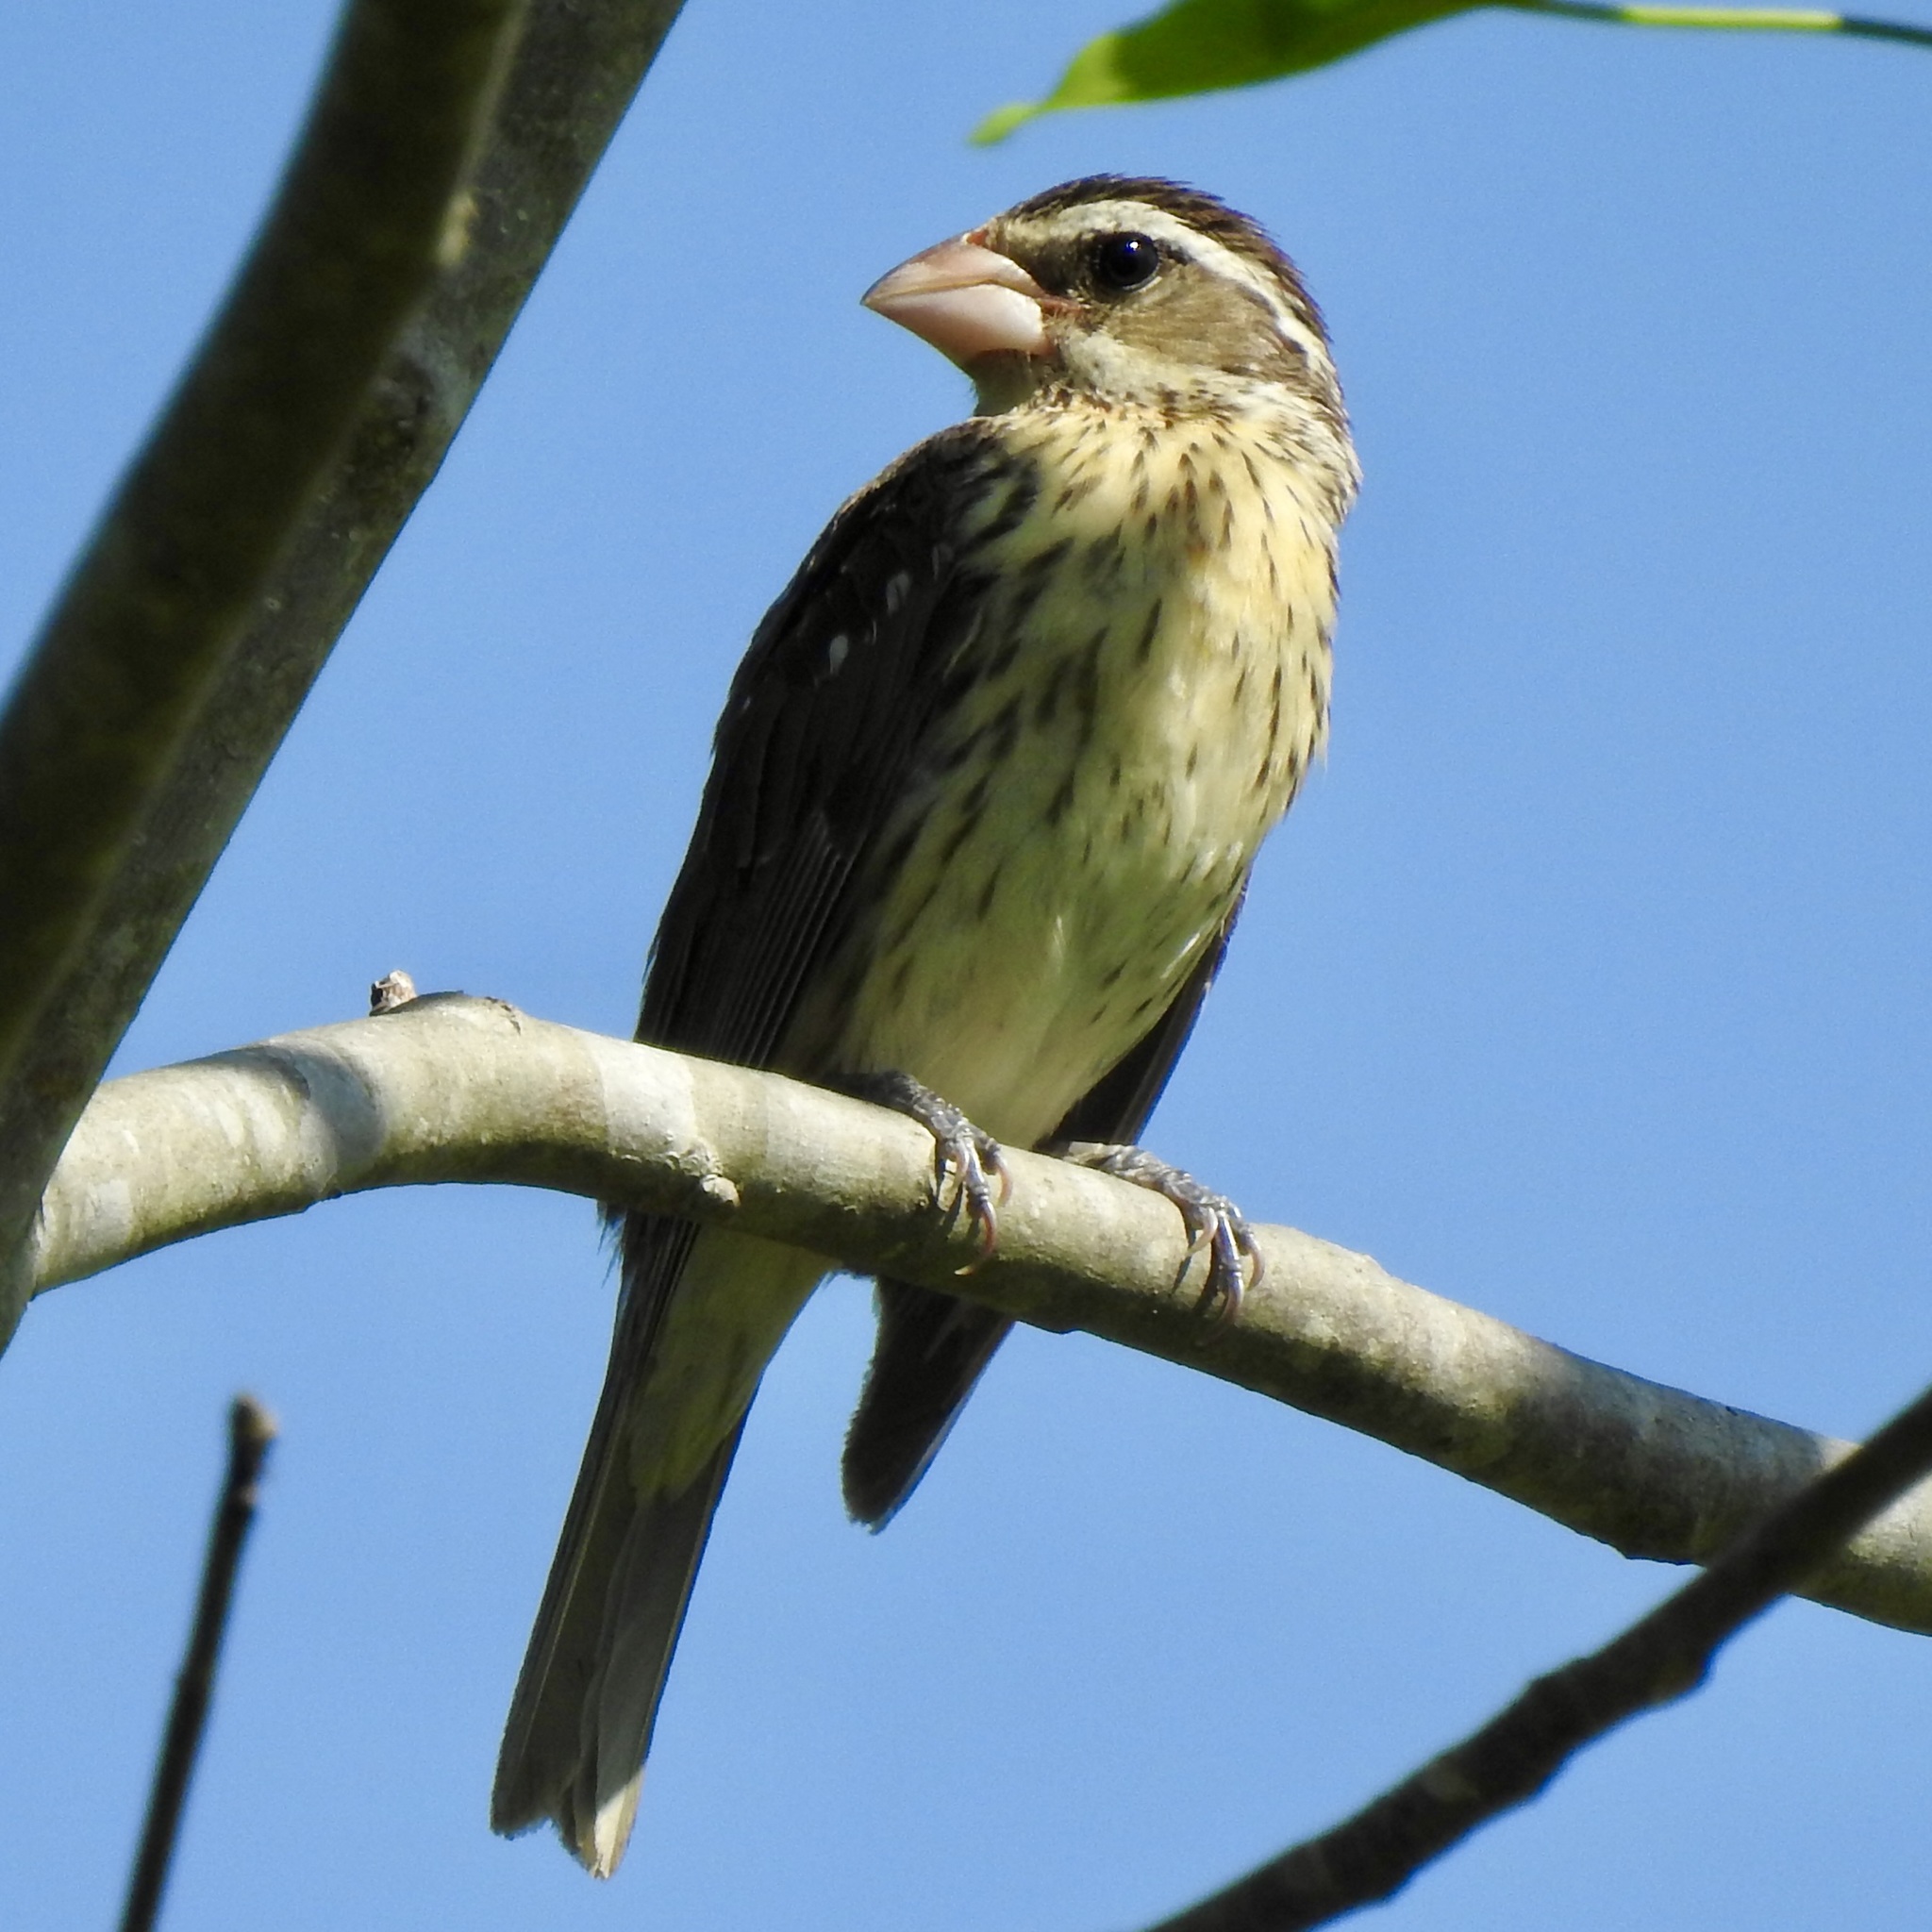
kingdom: Animalia
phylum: Chordata
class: Aves
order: Passeriformes
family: Cardinalidae
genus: Pheucticus
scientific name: Pheucticus ludovicianus
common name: Rose-breasted grosbeak
